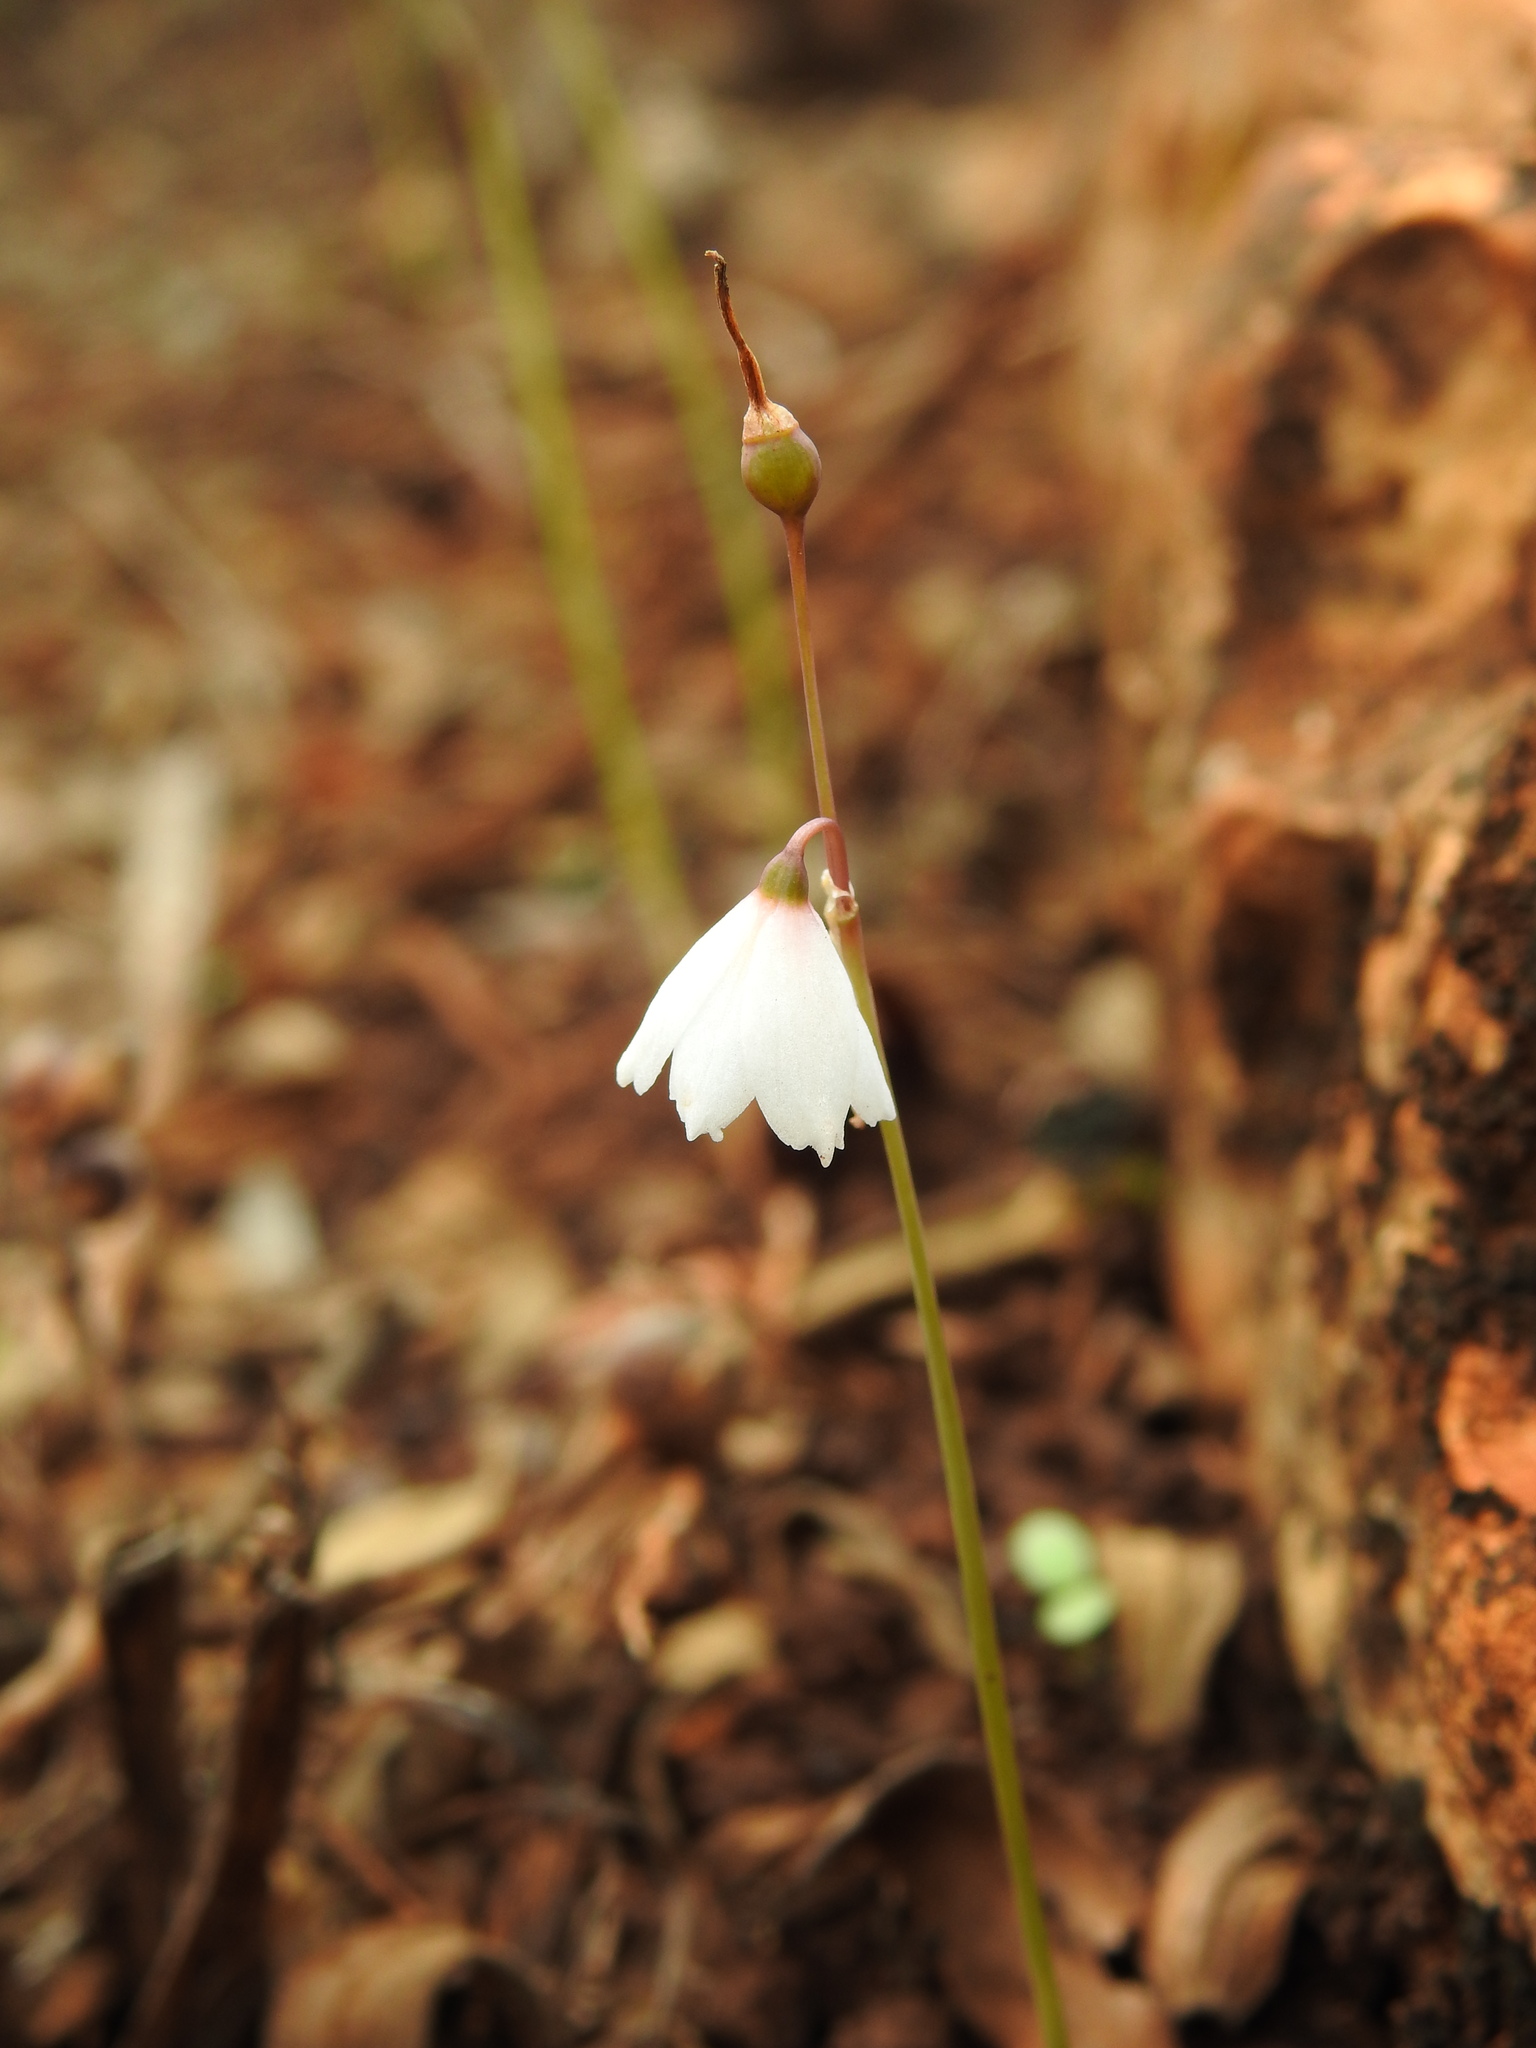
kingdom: Plantae
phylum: Tracheophyta
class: Liliopsida
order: Asparagales
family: Amaryllidaceae
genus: Acis
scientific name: Acis autumnalis
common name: Autumn snowflake
